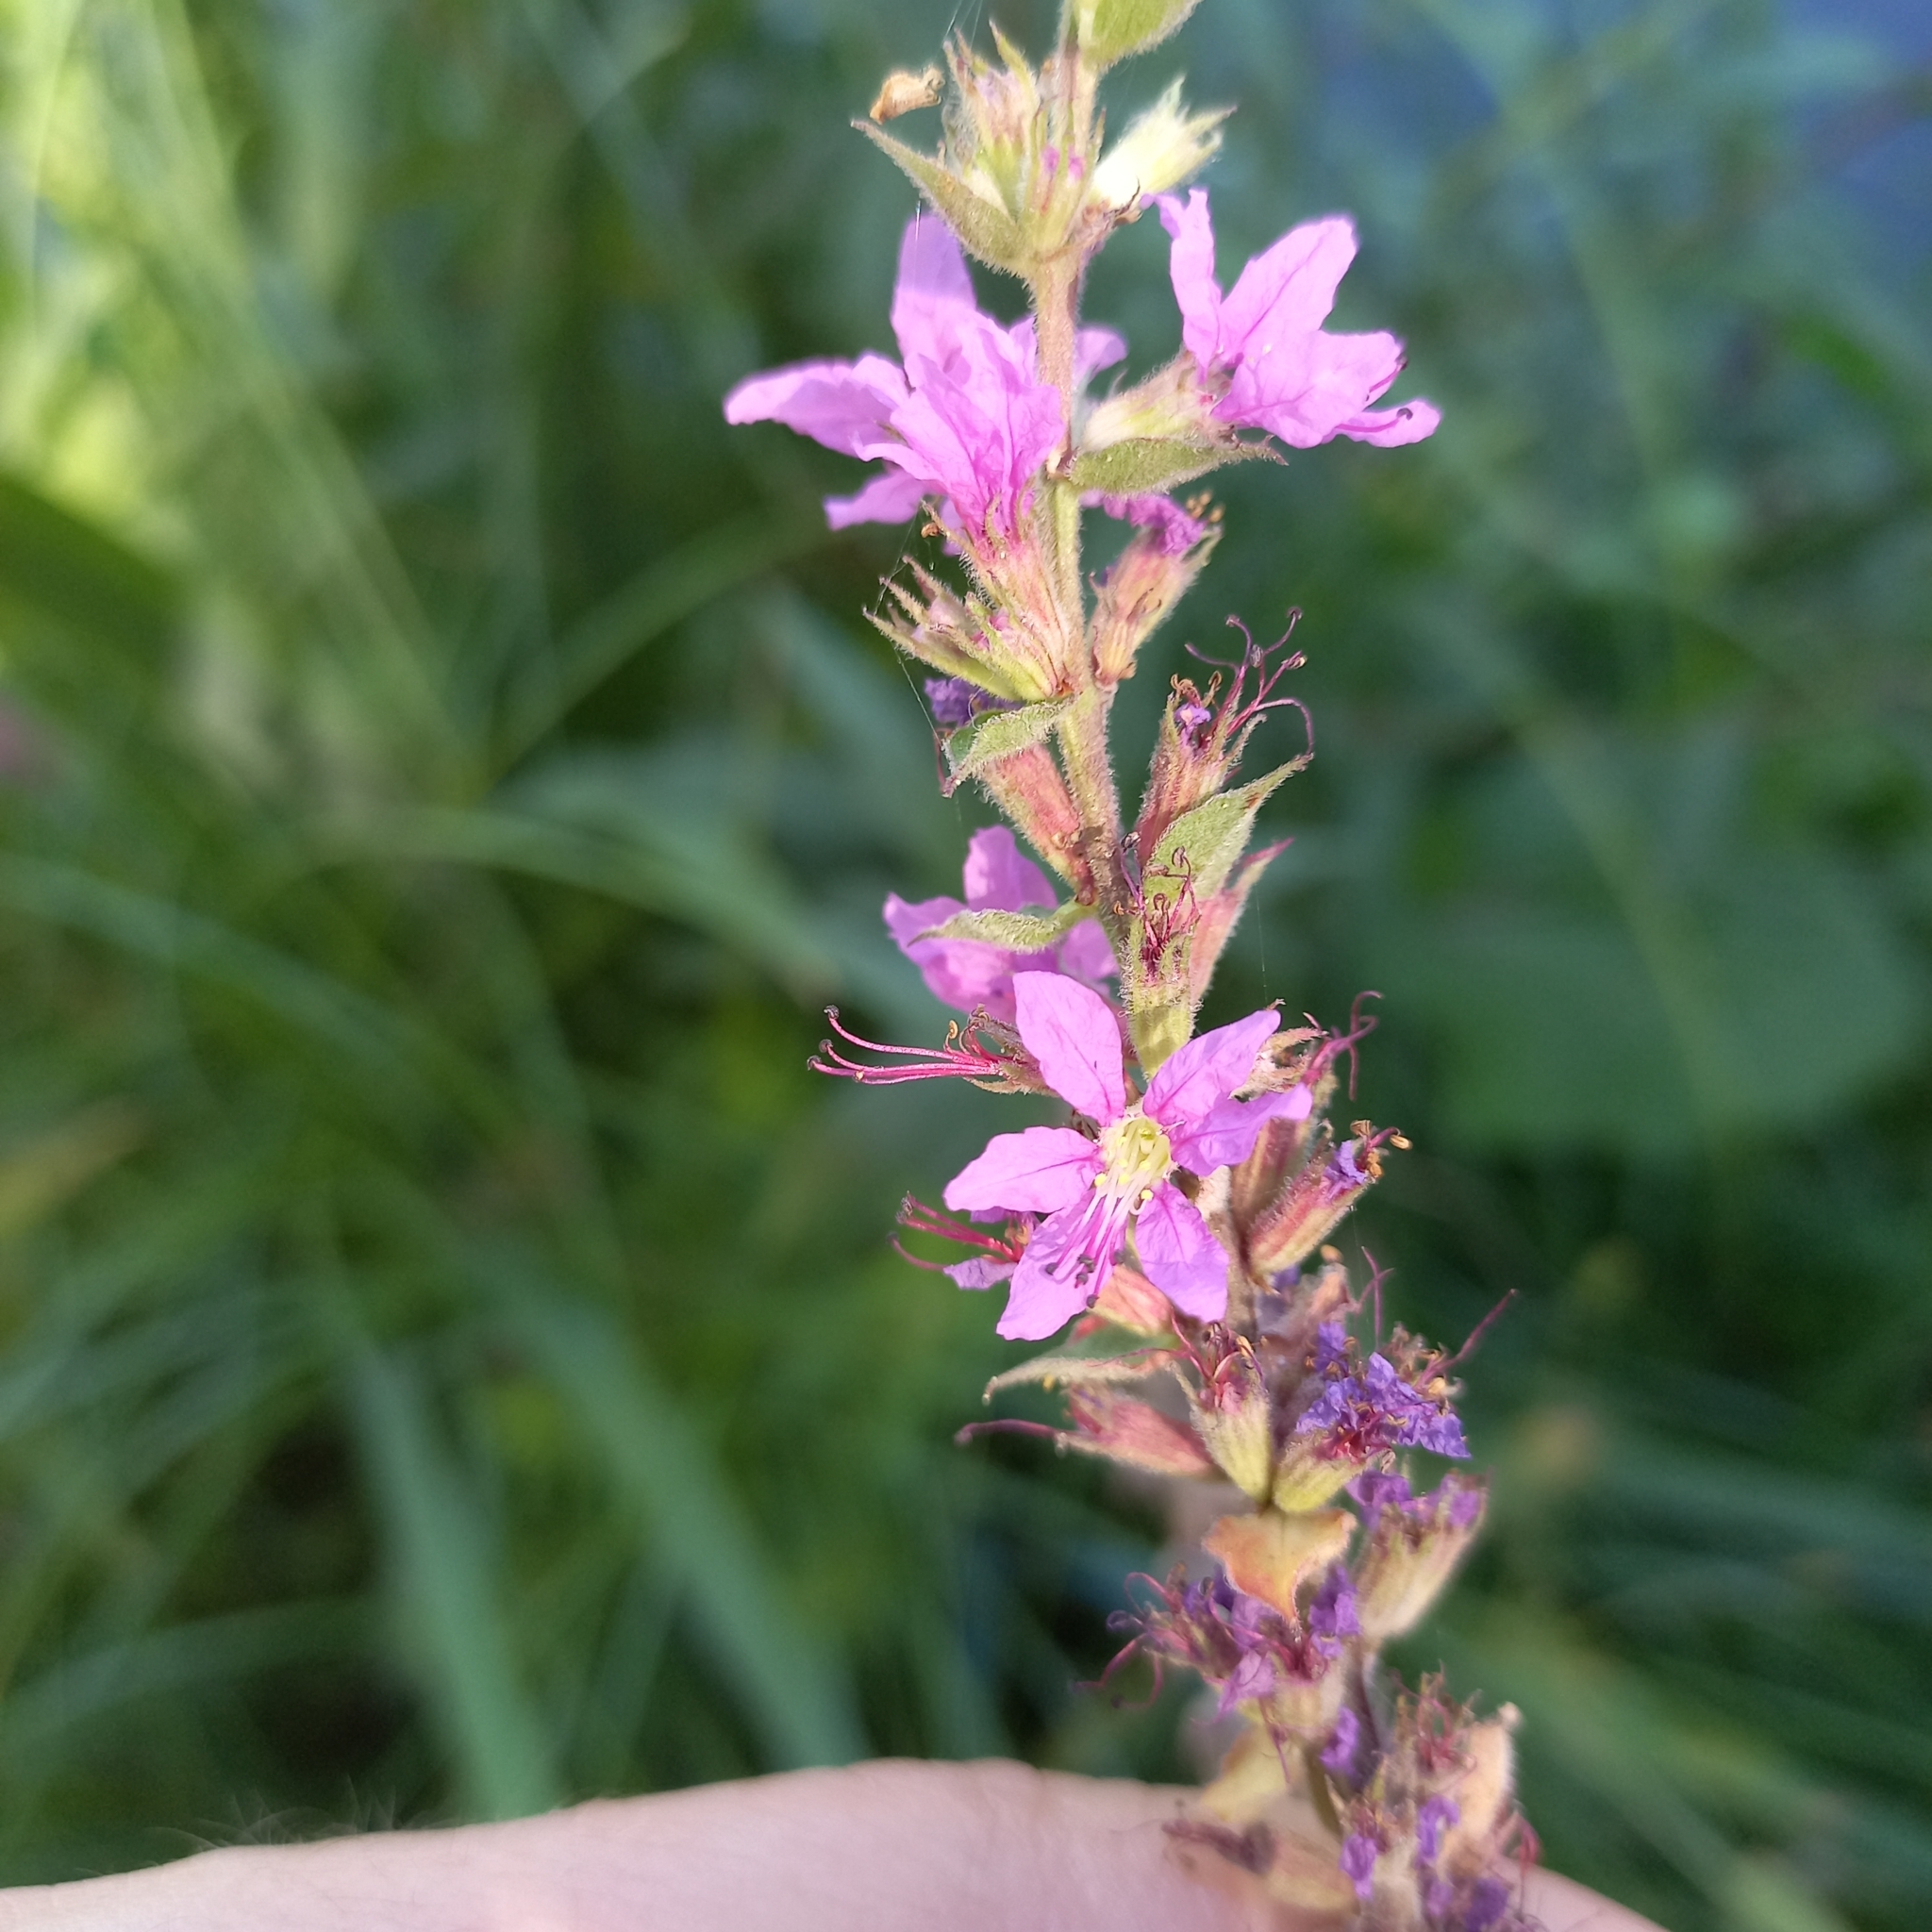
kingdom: Plantae
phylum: Tracheophyta
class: Magnoliopsida
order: Myrtales
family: Lythraceae
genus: Lythrum
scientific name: Lythrum salicaria
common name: Purple loosestrife
